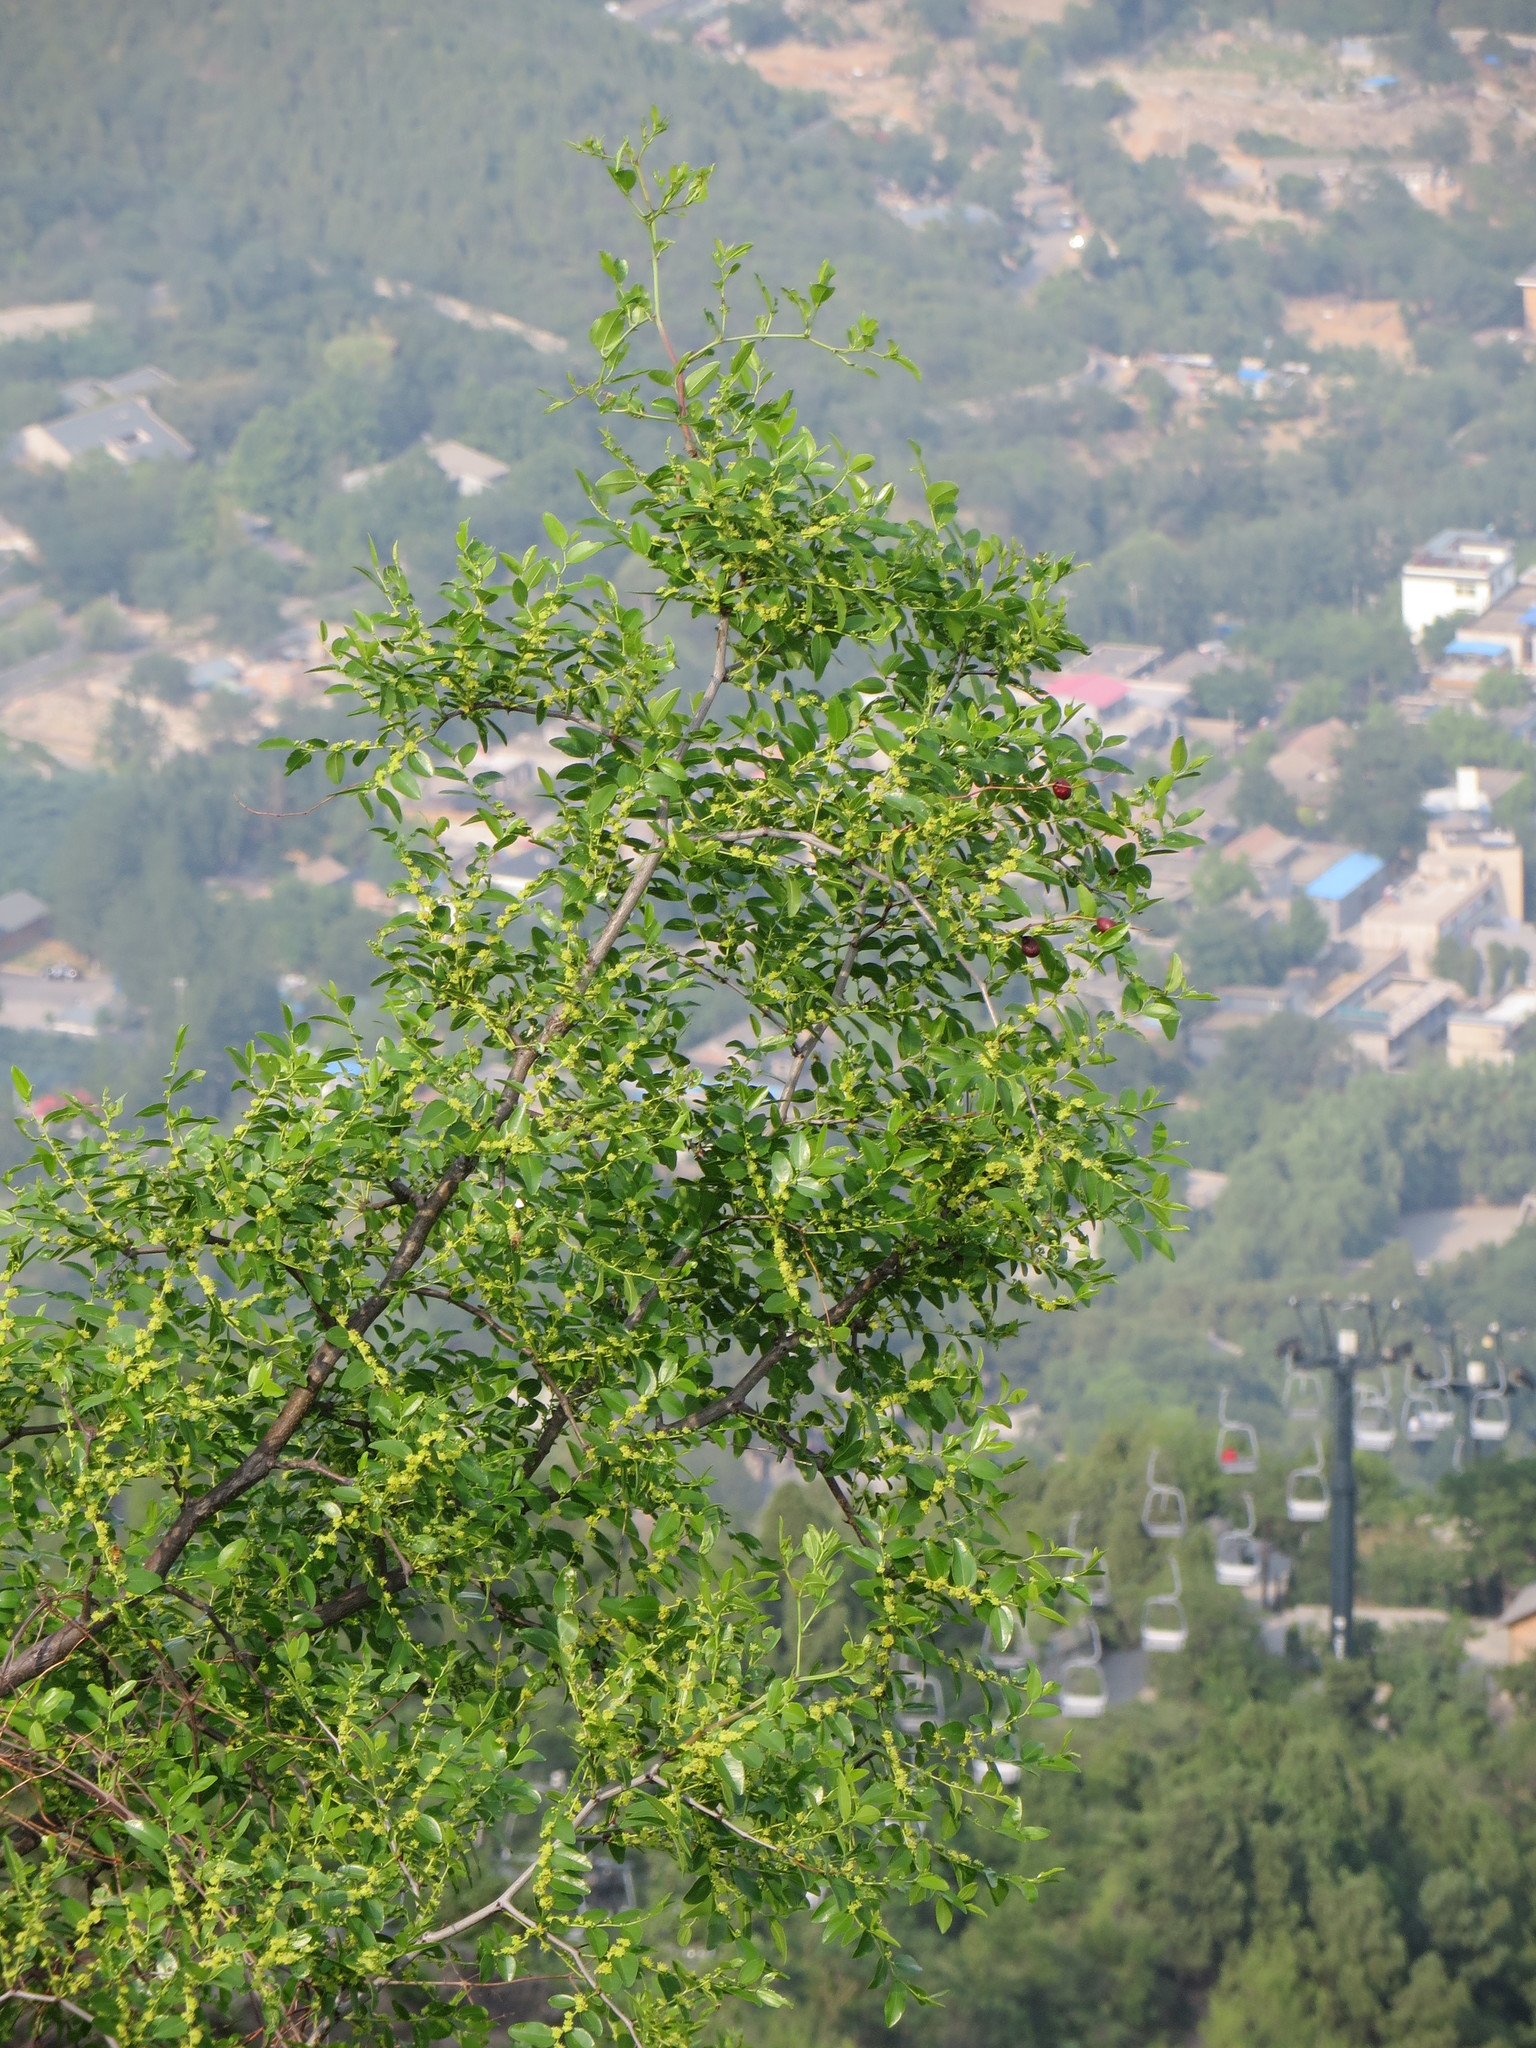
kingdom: Plantae
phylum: Tracheophyta
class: Magnoliopsida
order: Rosales
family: Rhamnaceae
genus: Ziziphus
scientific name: Ziziphus jujuba
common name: Jujube red date
